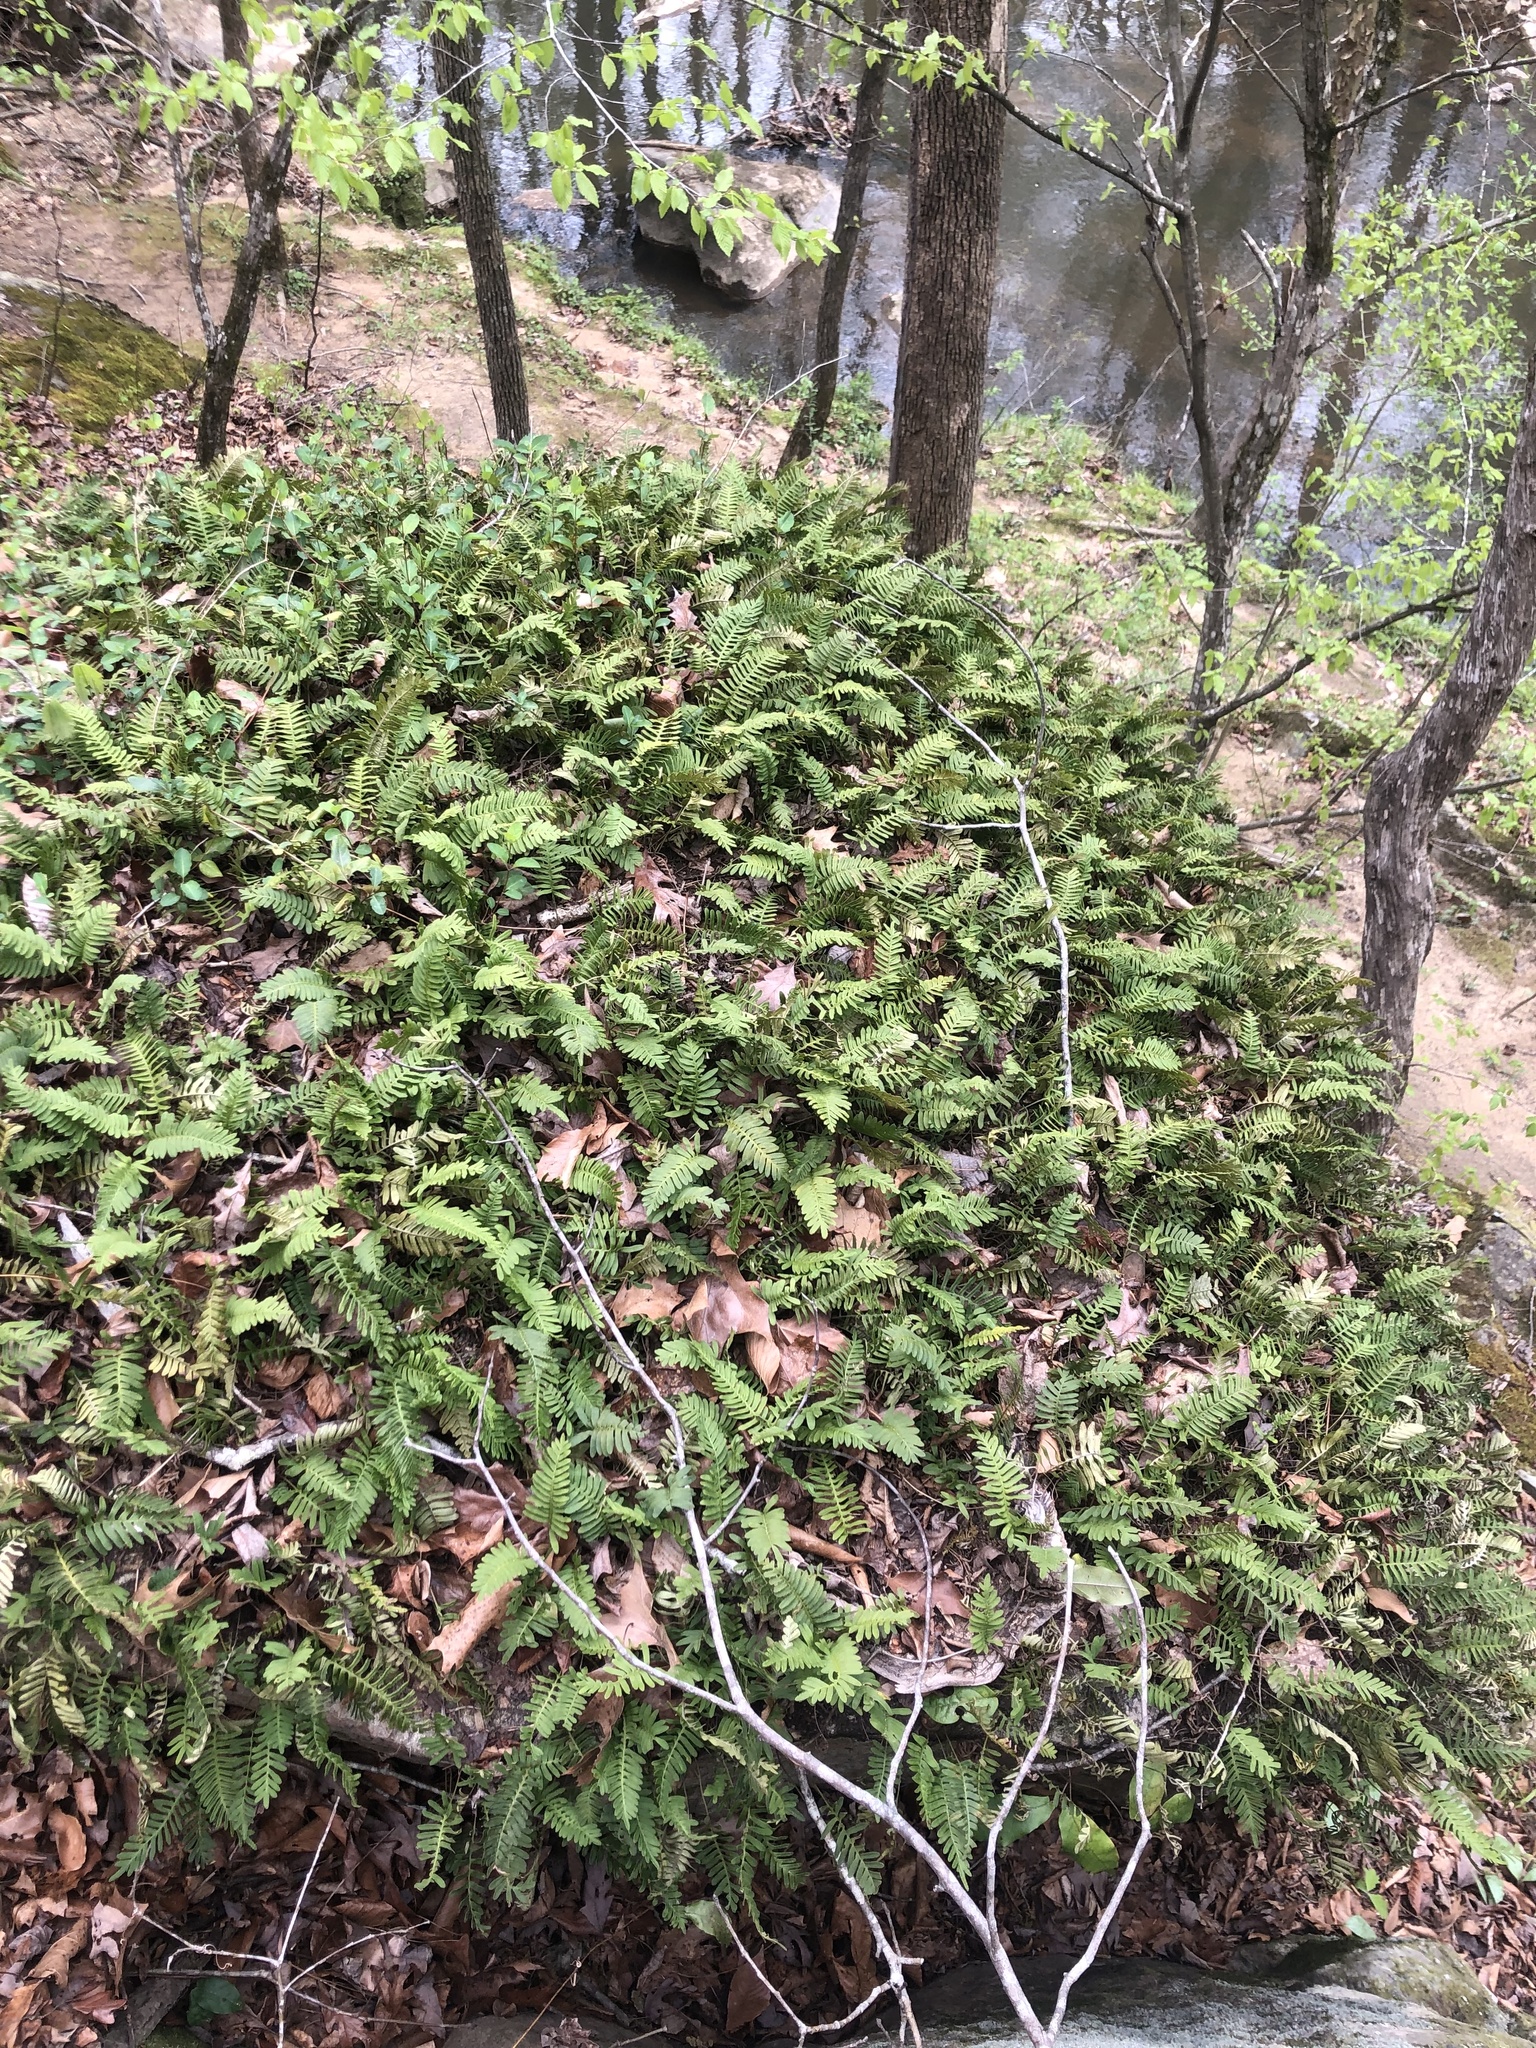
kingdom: Plantae
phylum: Tracheophyta
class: Polypodiopsida
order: Polypodiales
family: Polypodiaceae
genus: Pleopeltis
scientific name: Pleopeltis michauxiana
